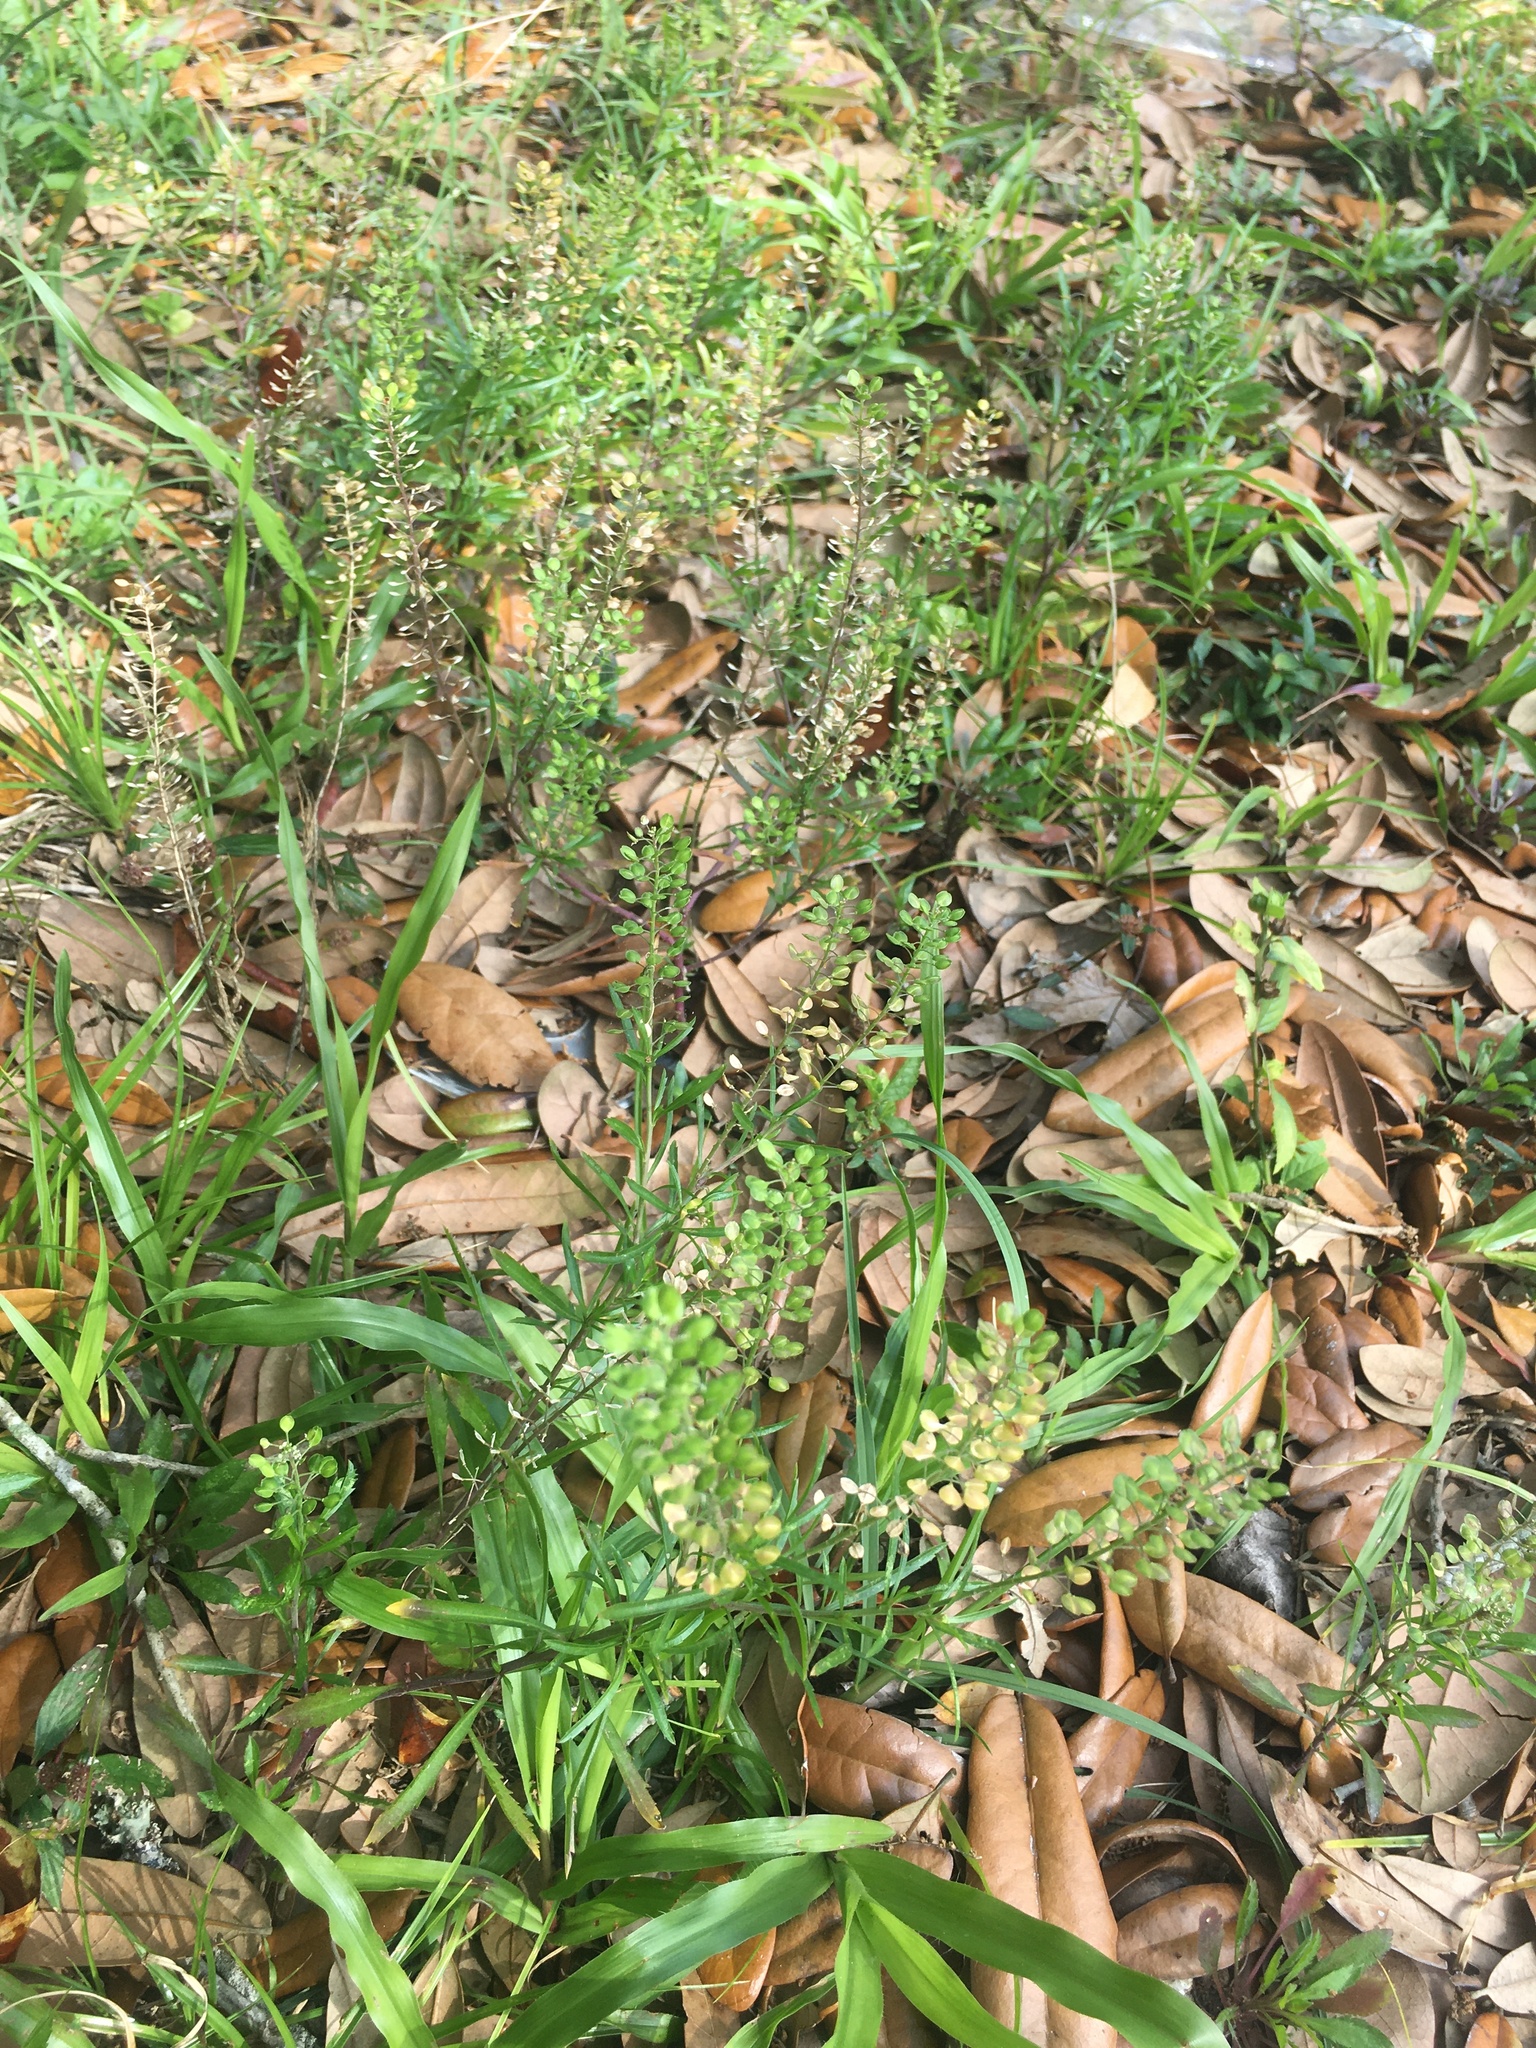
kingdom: Plantae
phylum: Tracheophyta
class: Magnoliopsida
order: Brassicales
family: Brassicaceae
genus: Lepidium
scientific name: Lepidium virginicum
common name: Least pepperwort
